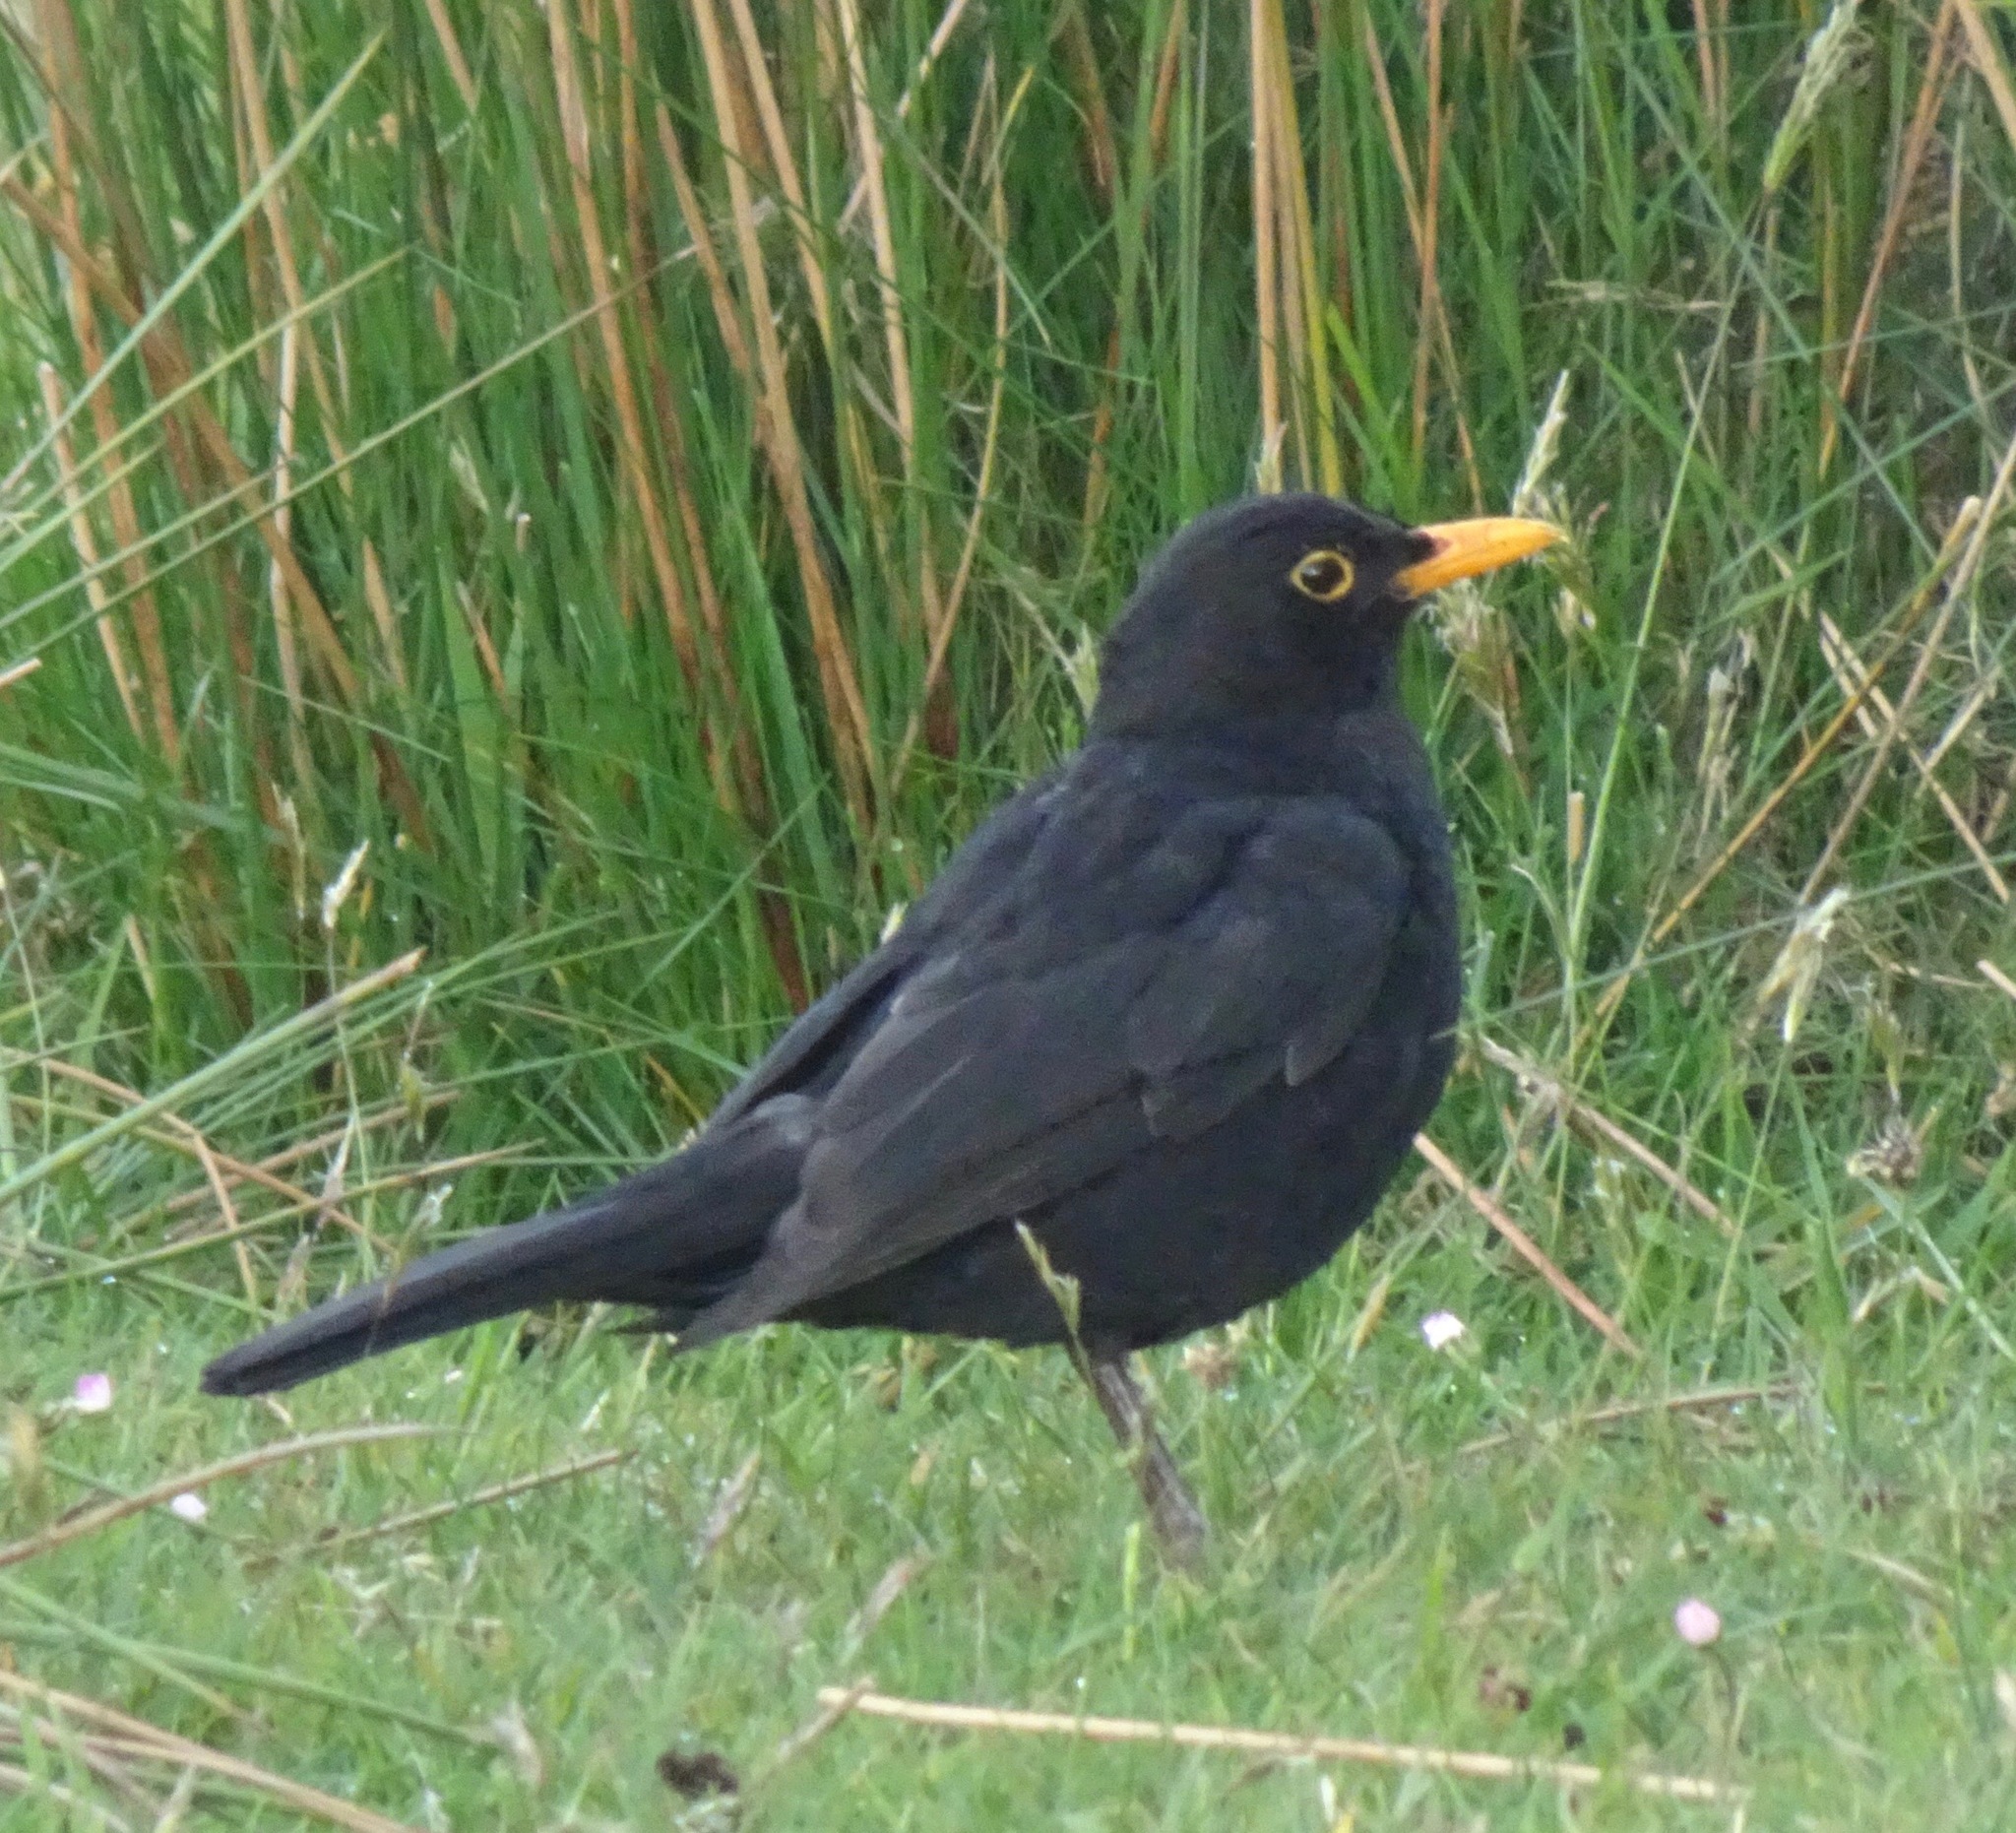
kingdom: Animalia
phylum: Chordata
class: Aves
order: Passeriformes
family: Turdidae
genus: Turdus
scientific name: Turdus merula
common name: Common blackbird
